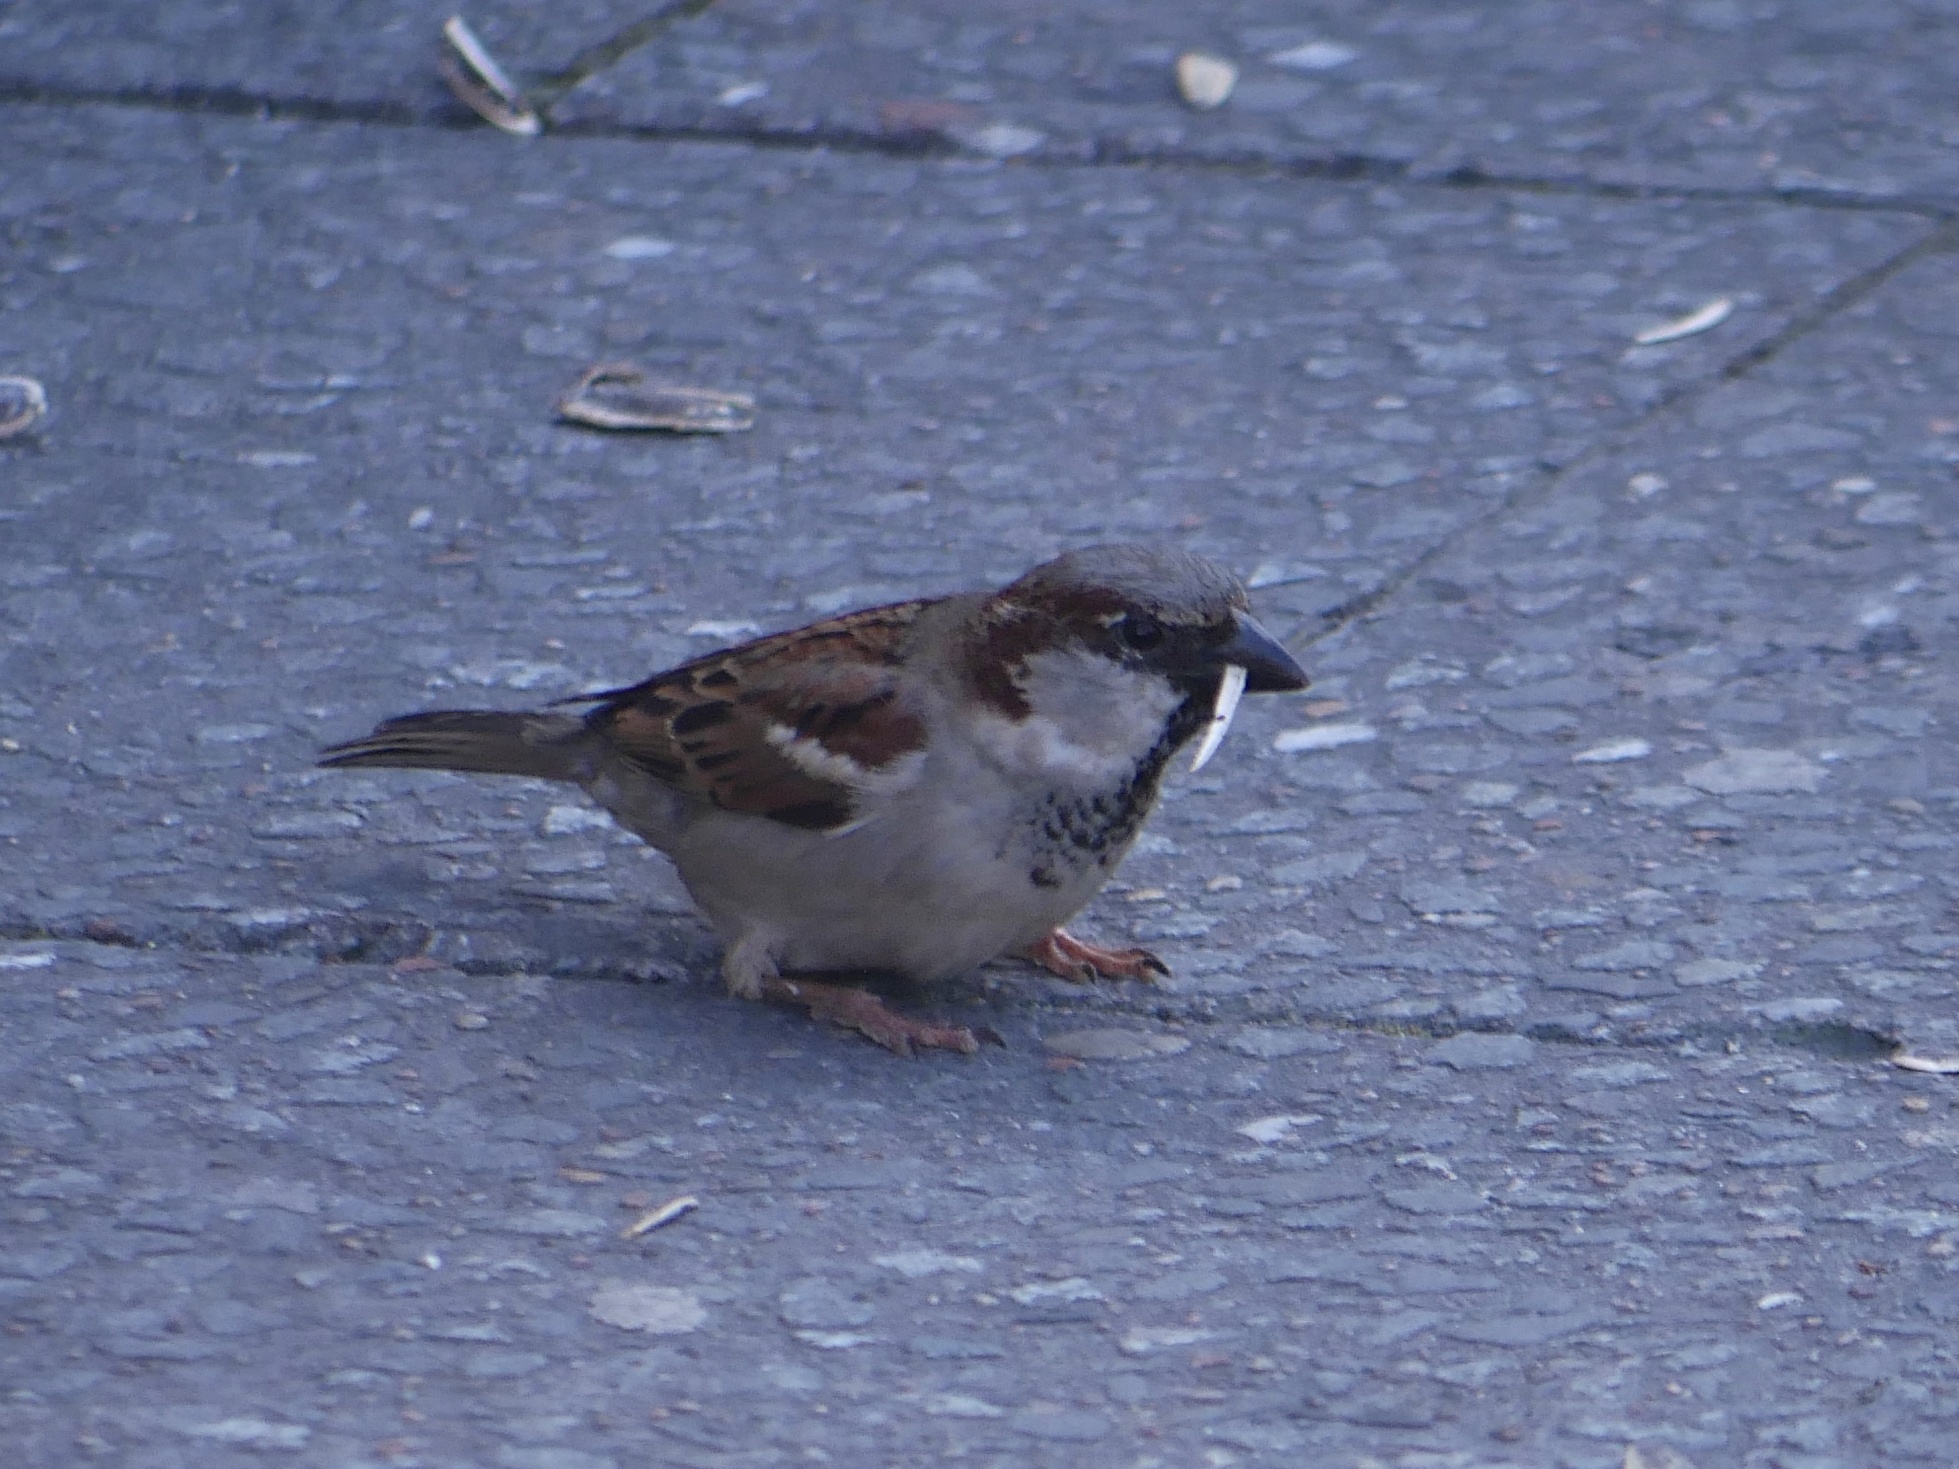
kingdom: Animalia
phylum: Chordata
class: Aves
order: Passeriformes
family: Passeridae
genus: Passer
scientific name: Passer domesticus
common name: House sparrow
